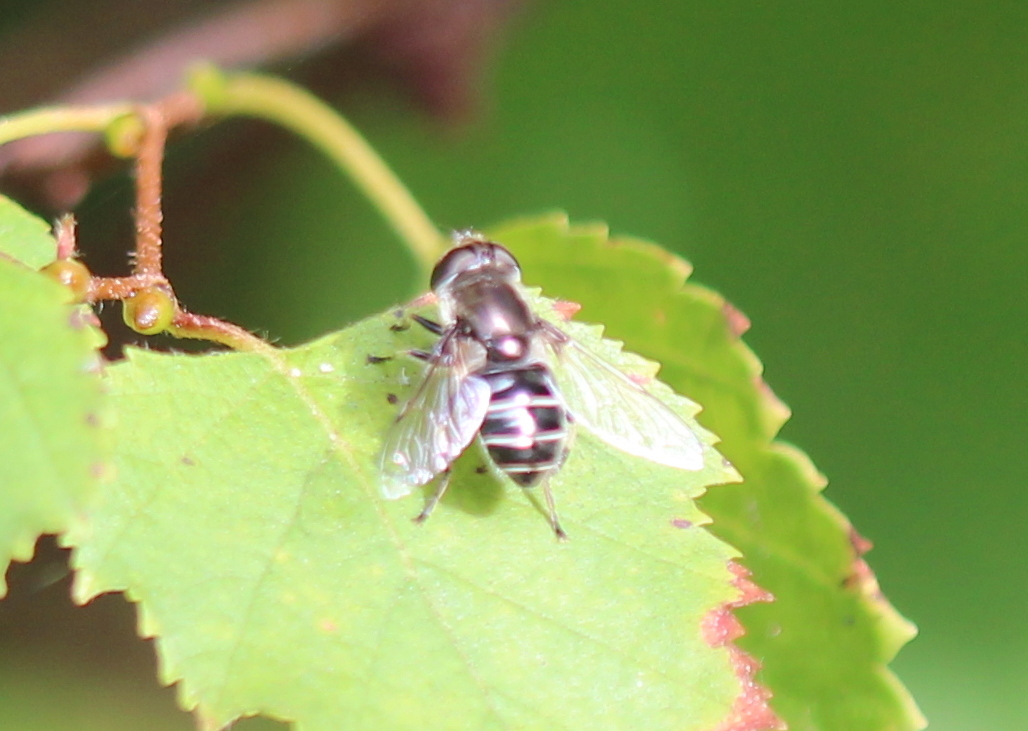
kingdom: Animalia
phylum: Arthropoda
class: Insecta
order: Diptera
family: Syrphidae
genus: Eristalis
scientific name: Eristalis dimidiata
